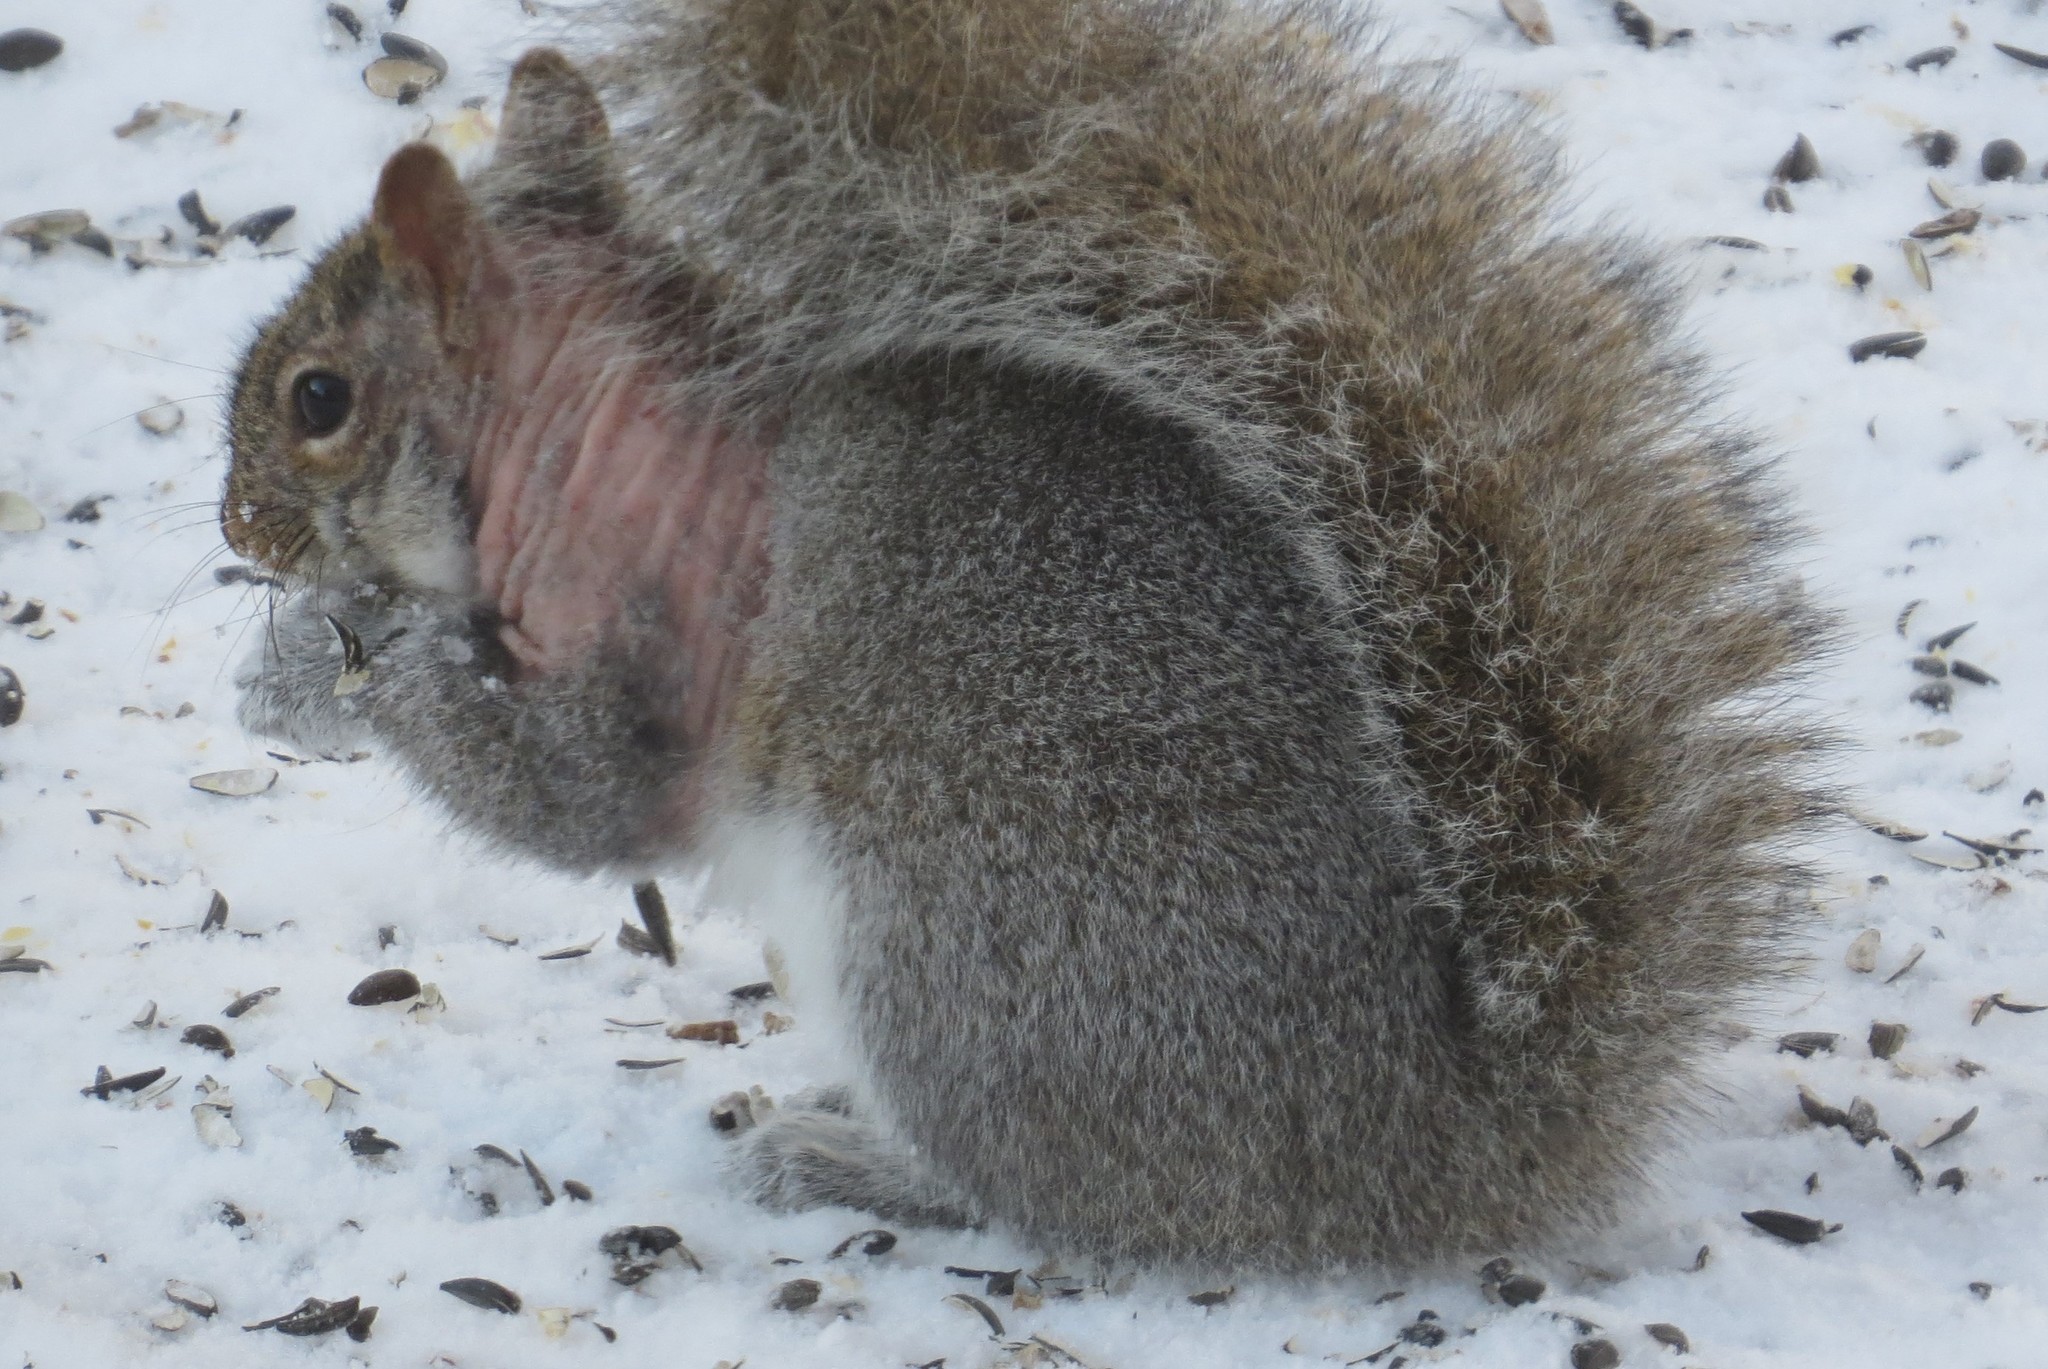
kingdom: Animalia
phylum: Arthropoda
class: Arachnida
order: Sarcoptiformes
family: Sarcoptidae
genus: Notoedres
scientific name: Notoedres centrifera
